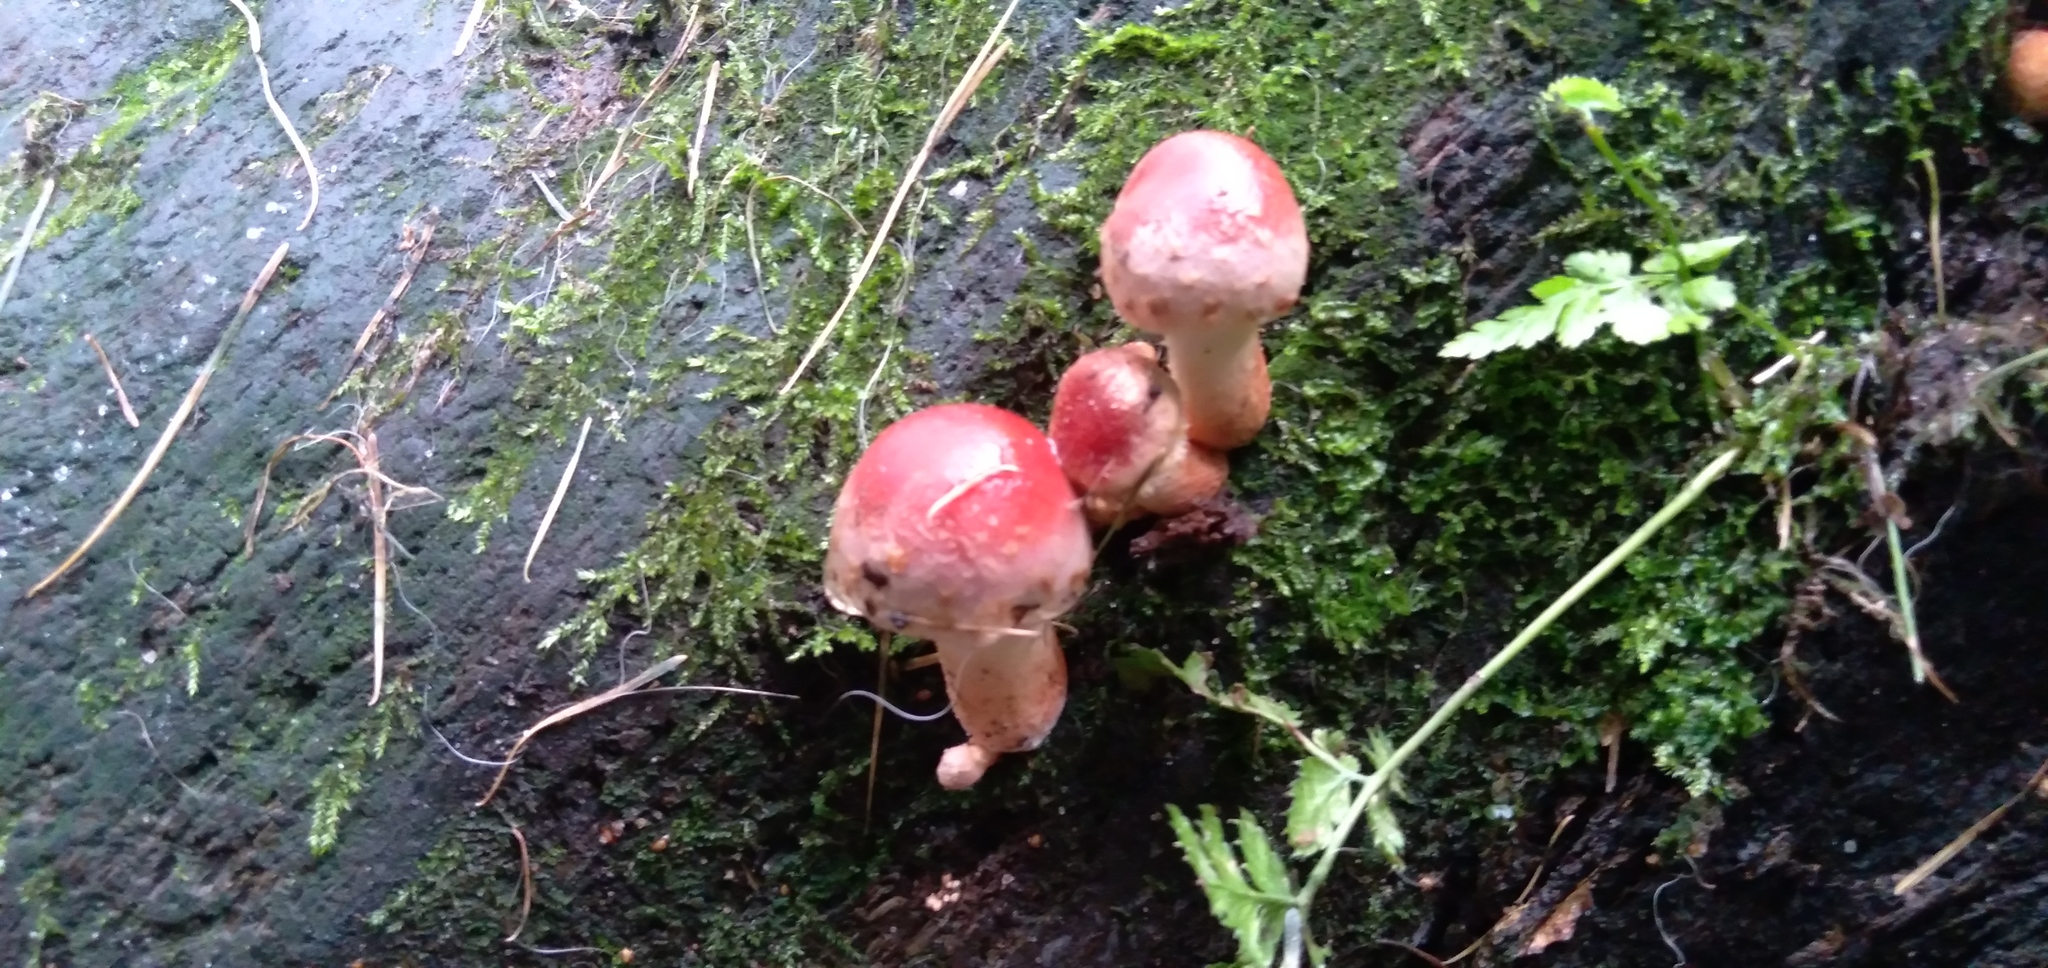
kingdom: Fungi
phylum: Basidiomycota
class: Agaricomycetes
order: Agaricales
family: Strophariaceae
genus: Hypholoma
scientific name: Hypholoma lateritium
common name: Brick caps
